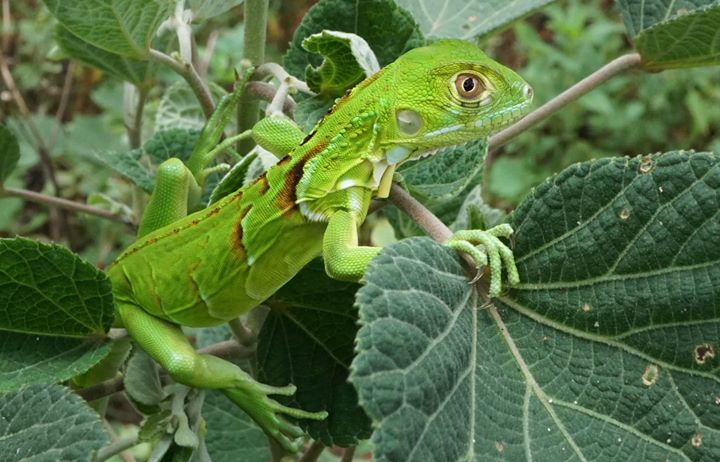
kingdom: Animalia
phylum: Chordata
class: Squamata
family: Iguanidae
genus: Iguana
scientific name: Iguana iguana
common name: Green iguana
